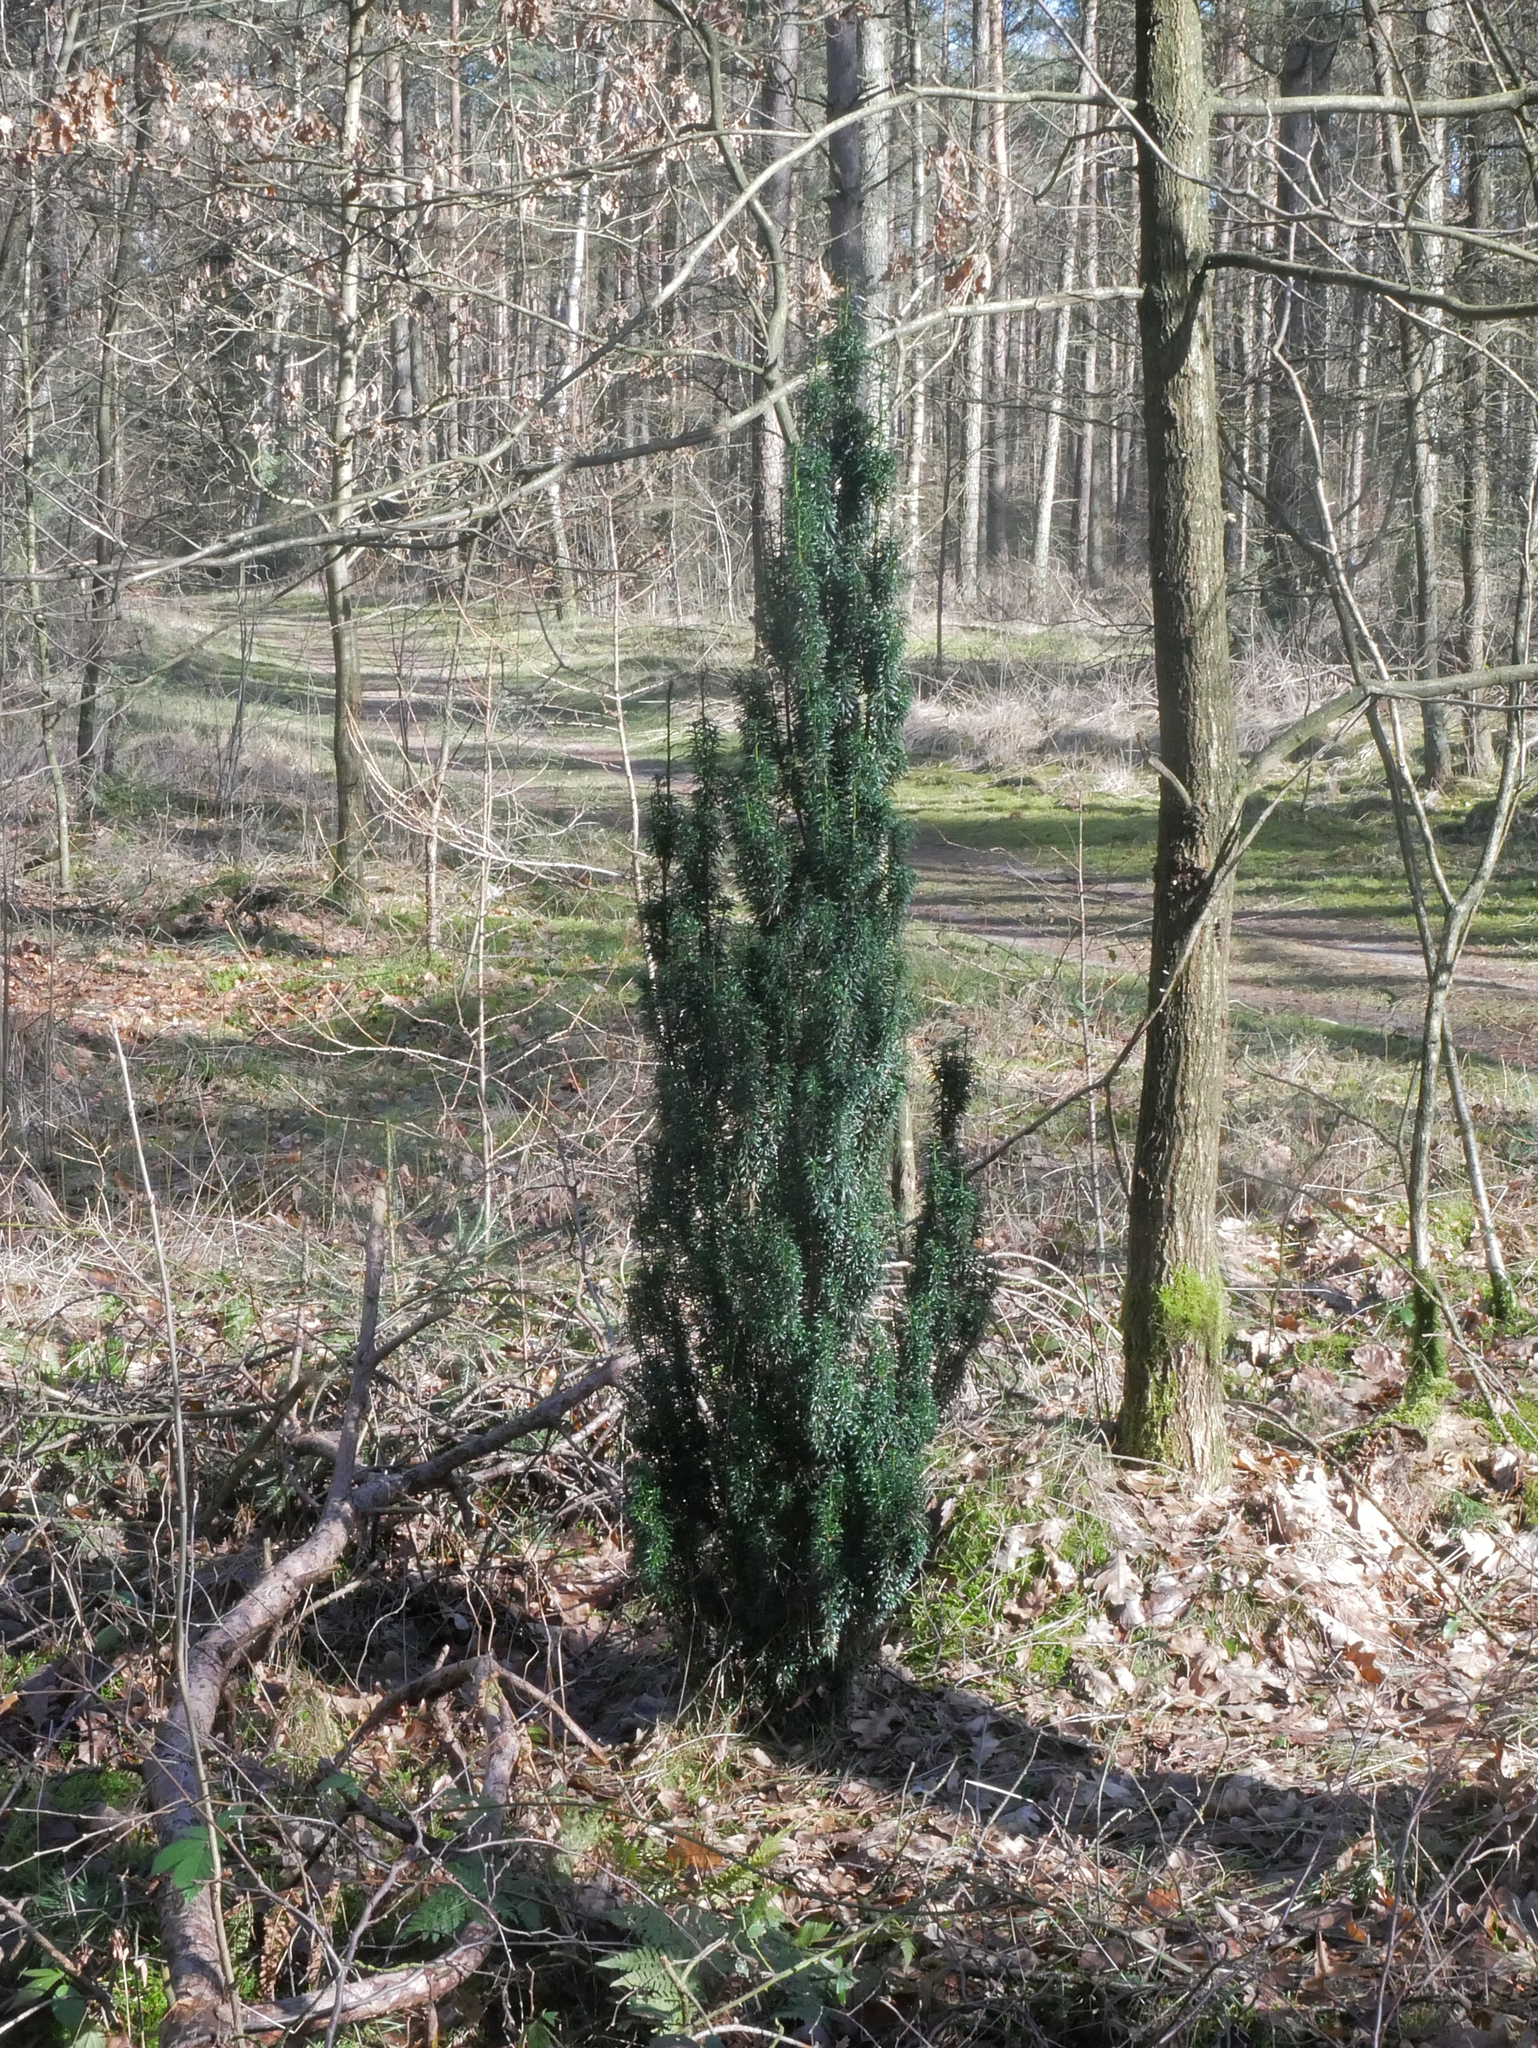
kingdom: Plantae
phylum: Tracheophyta
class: Pinopsida
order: Pinales
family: Taxaceae
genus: Taxus
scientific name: Taxus baccata
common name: Yew
